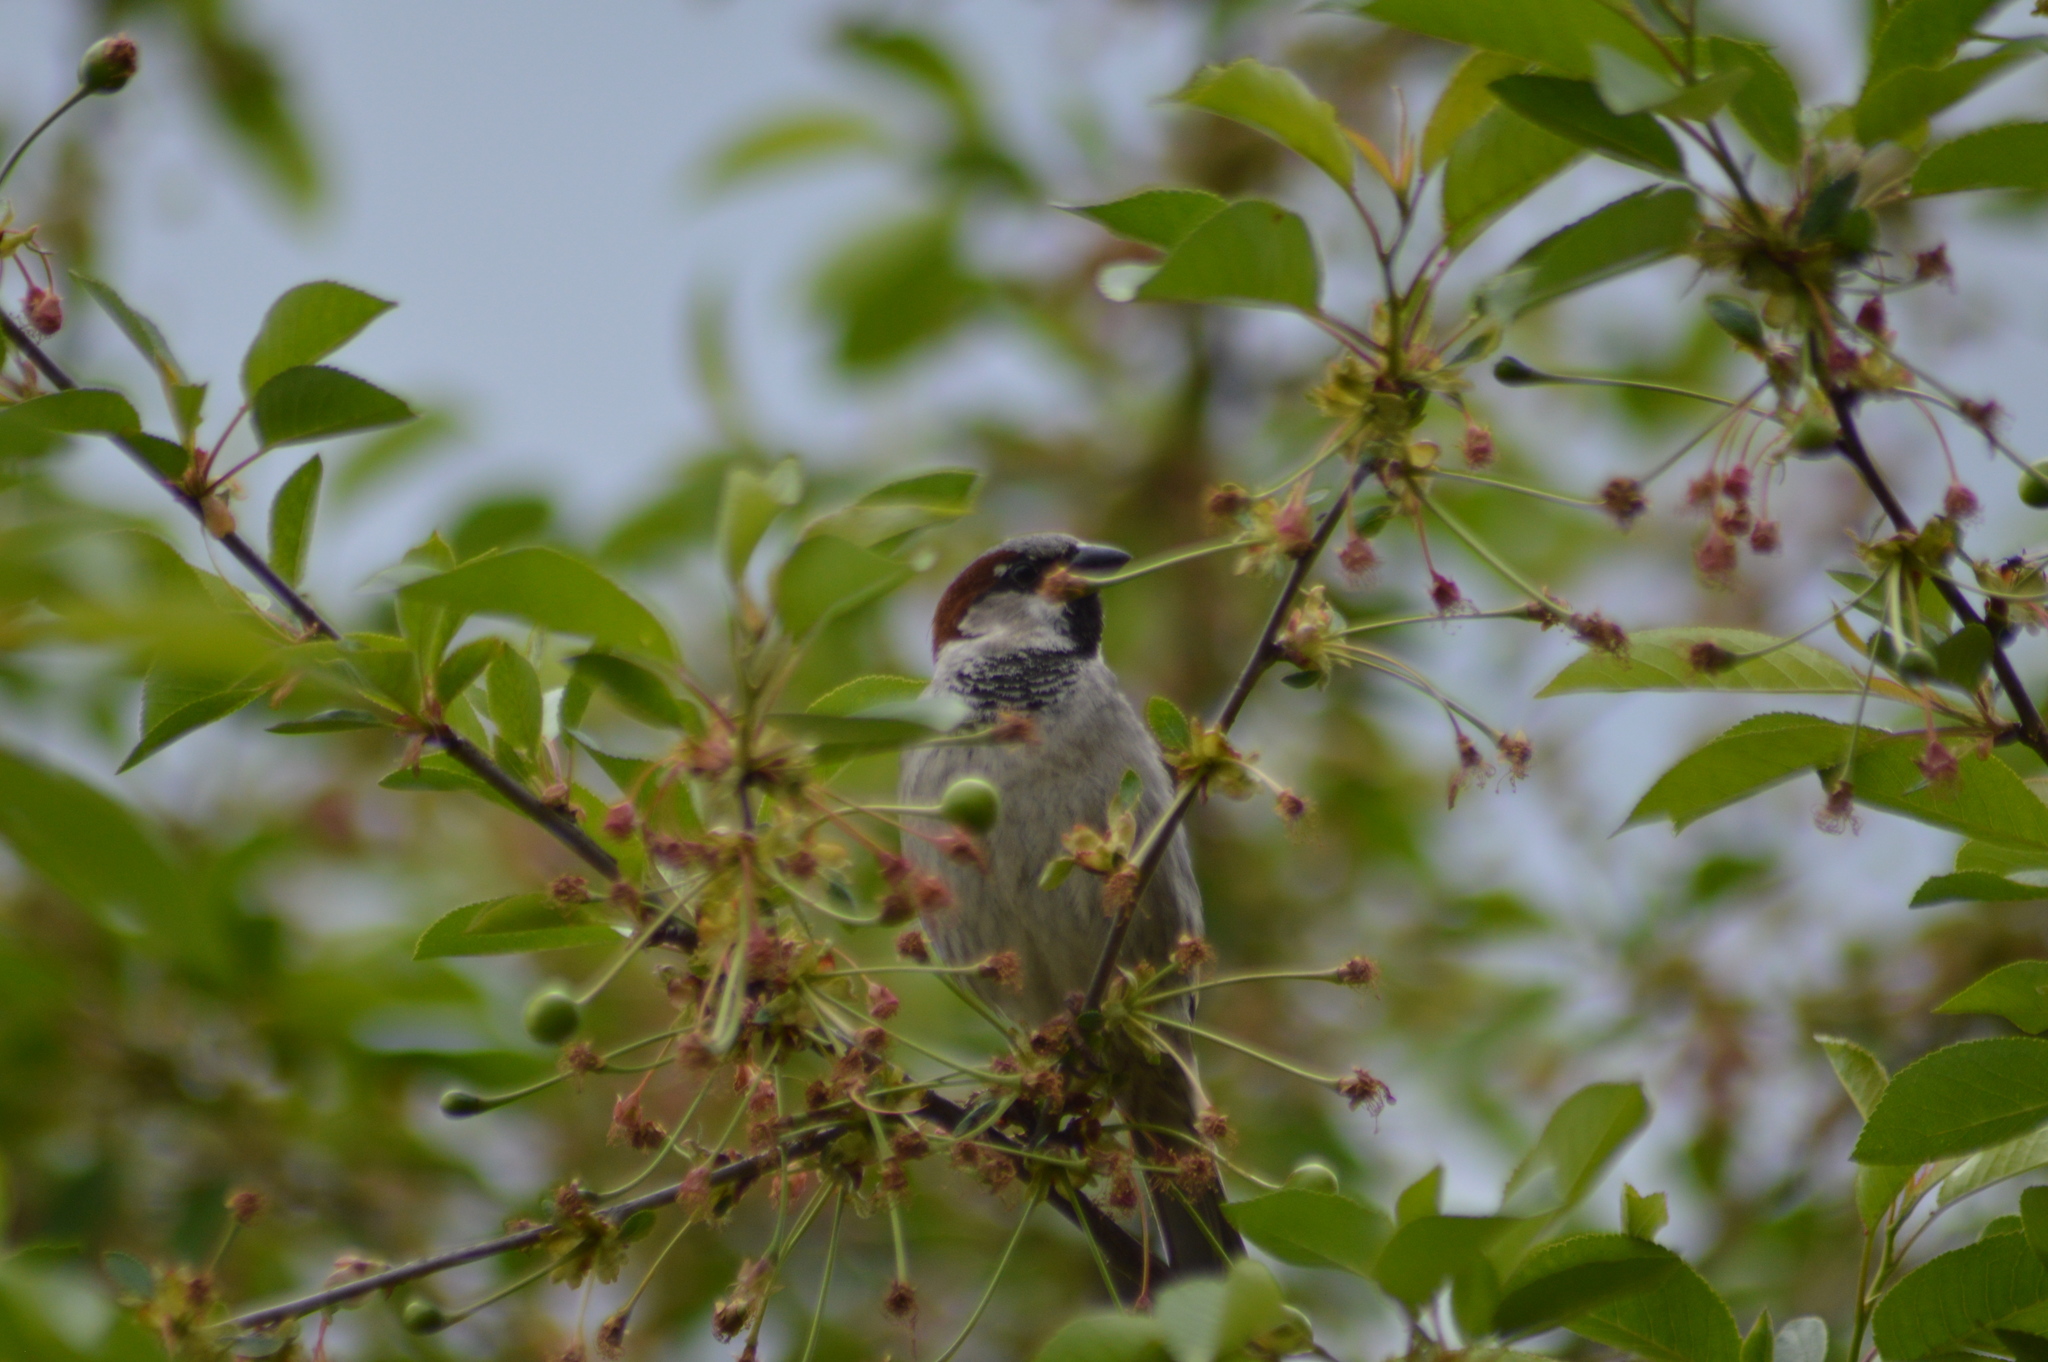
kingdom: Animalia
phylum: Chordata
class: Aves
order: Passeriformes
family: Passeridae
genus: Passer
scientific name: Passer domesticus
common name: House sparrow
